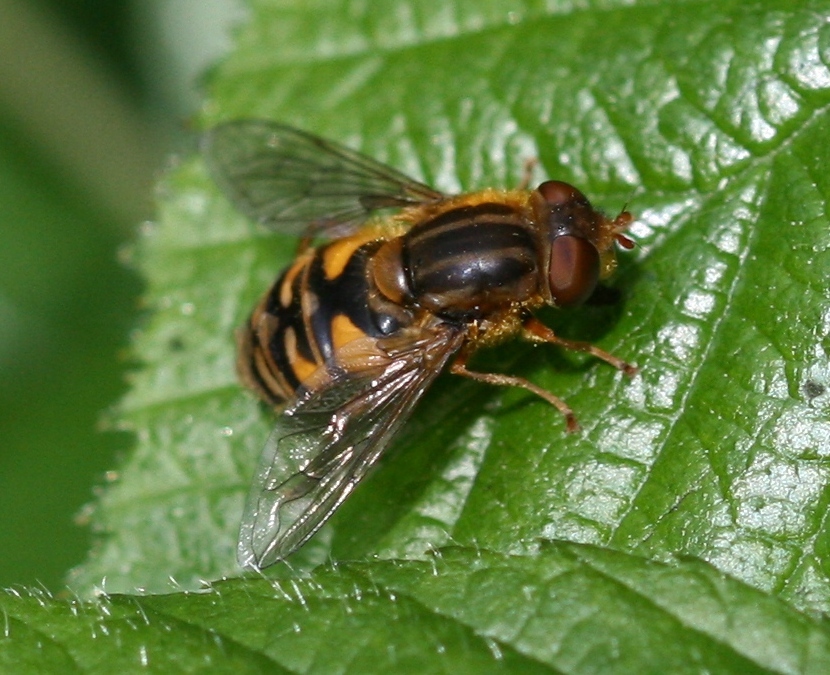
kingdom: Animalia
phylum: Arthropoda
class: Insecta
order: Diptera
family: Syrphidae
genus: Parhelophilus
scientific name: Parhelophilus
